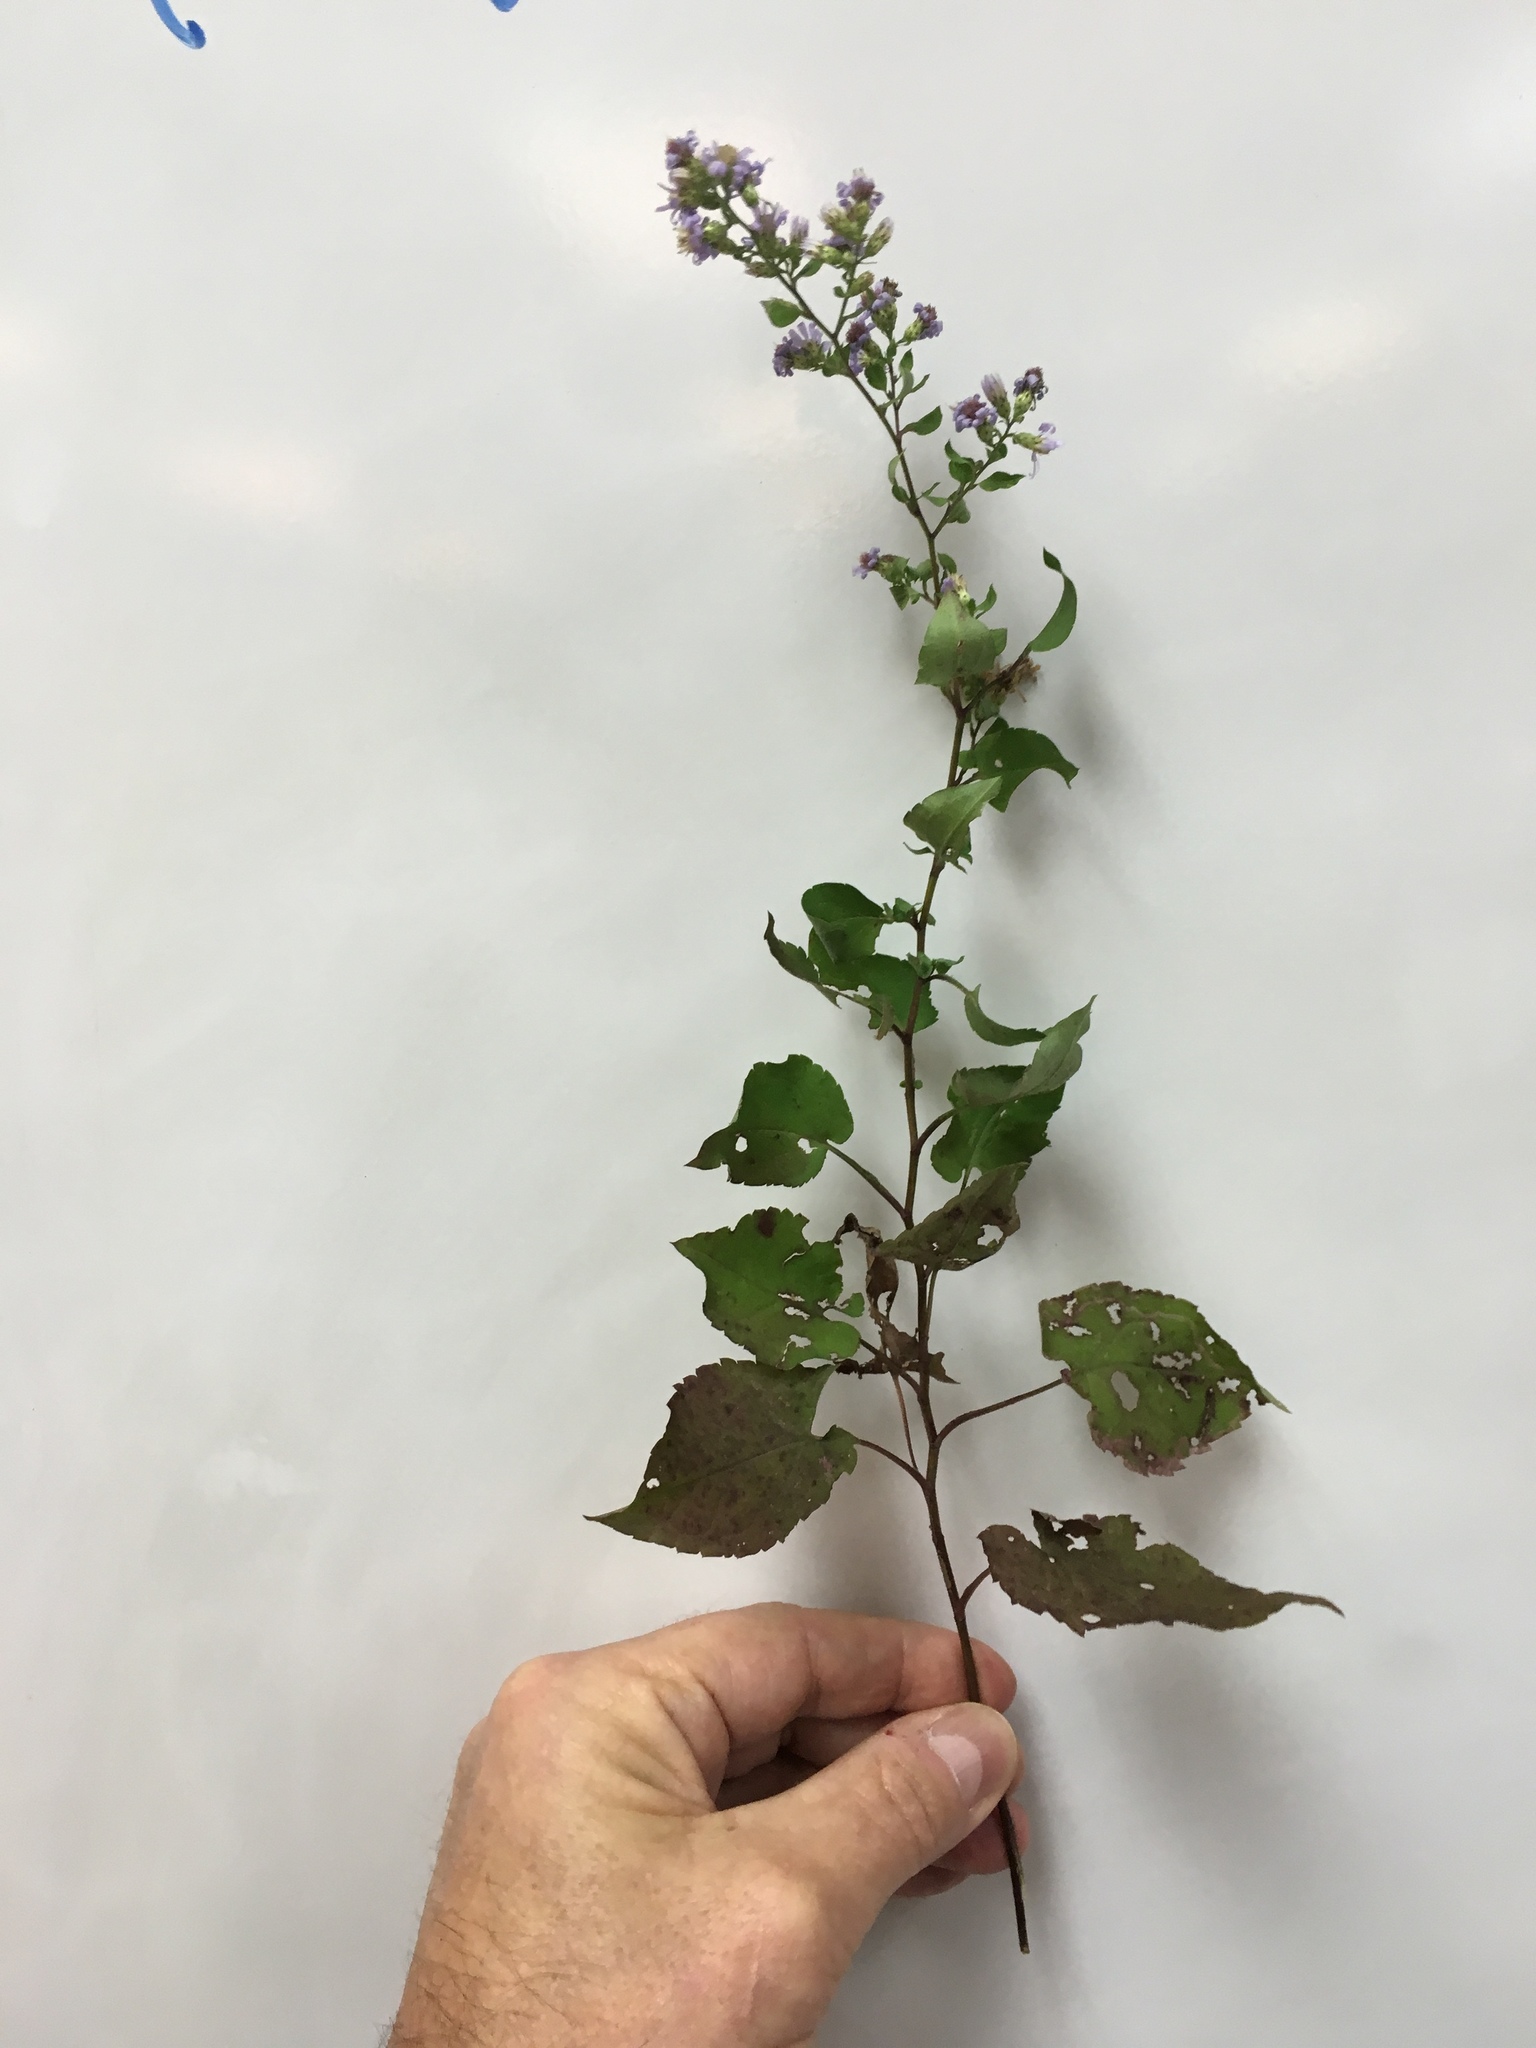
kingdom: Plantae
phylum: Tracheophyta
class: Magnoliopsida
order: Asterales
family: Asteraceae
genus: Symphyotrichum
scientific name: Symphyotrichum laeve
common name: Glaucous aster
